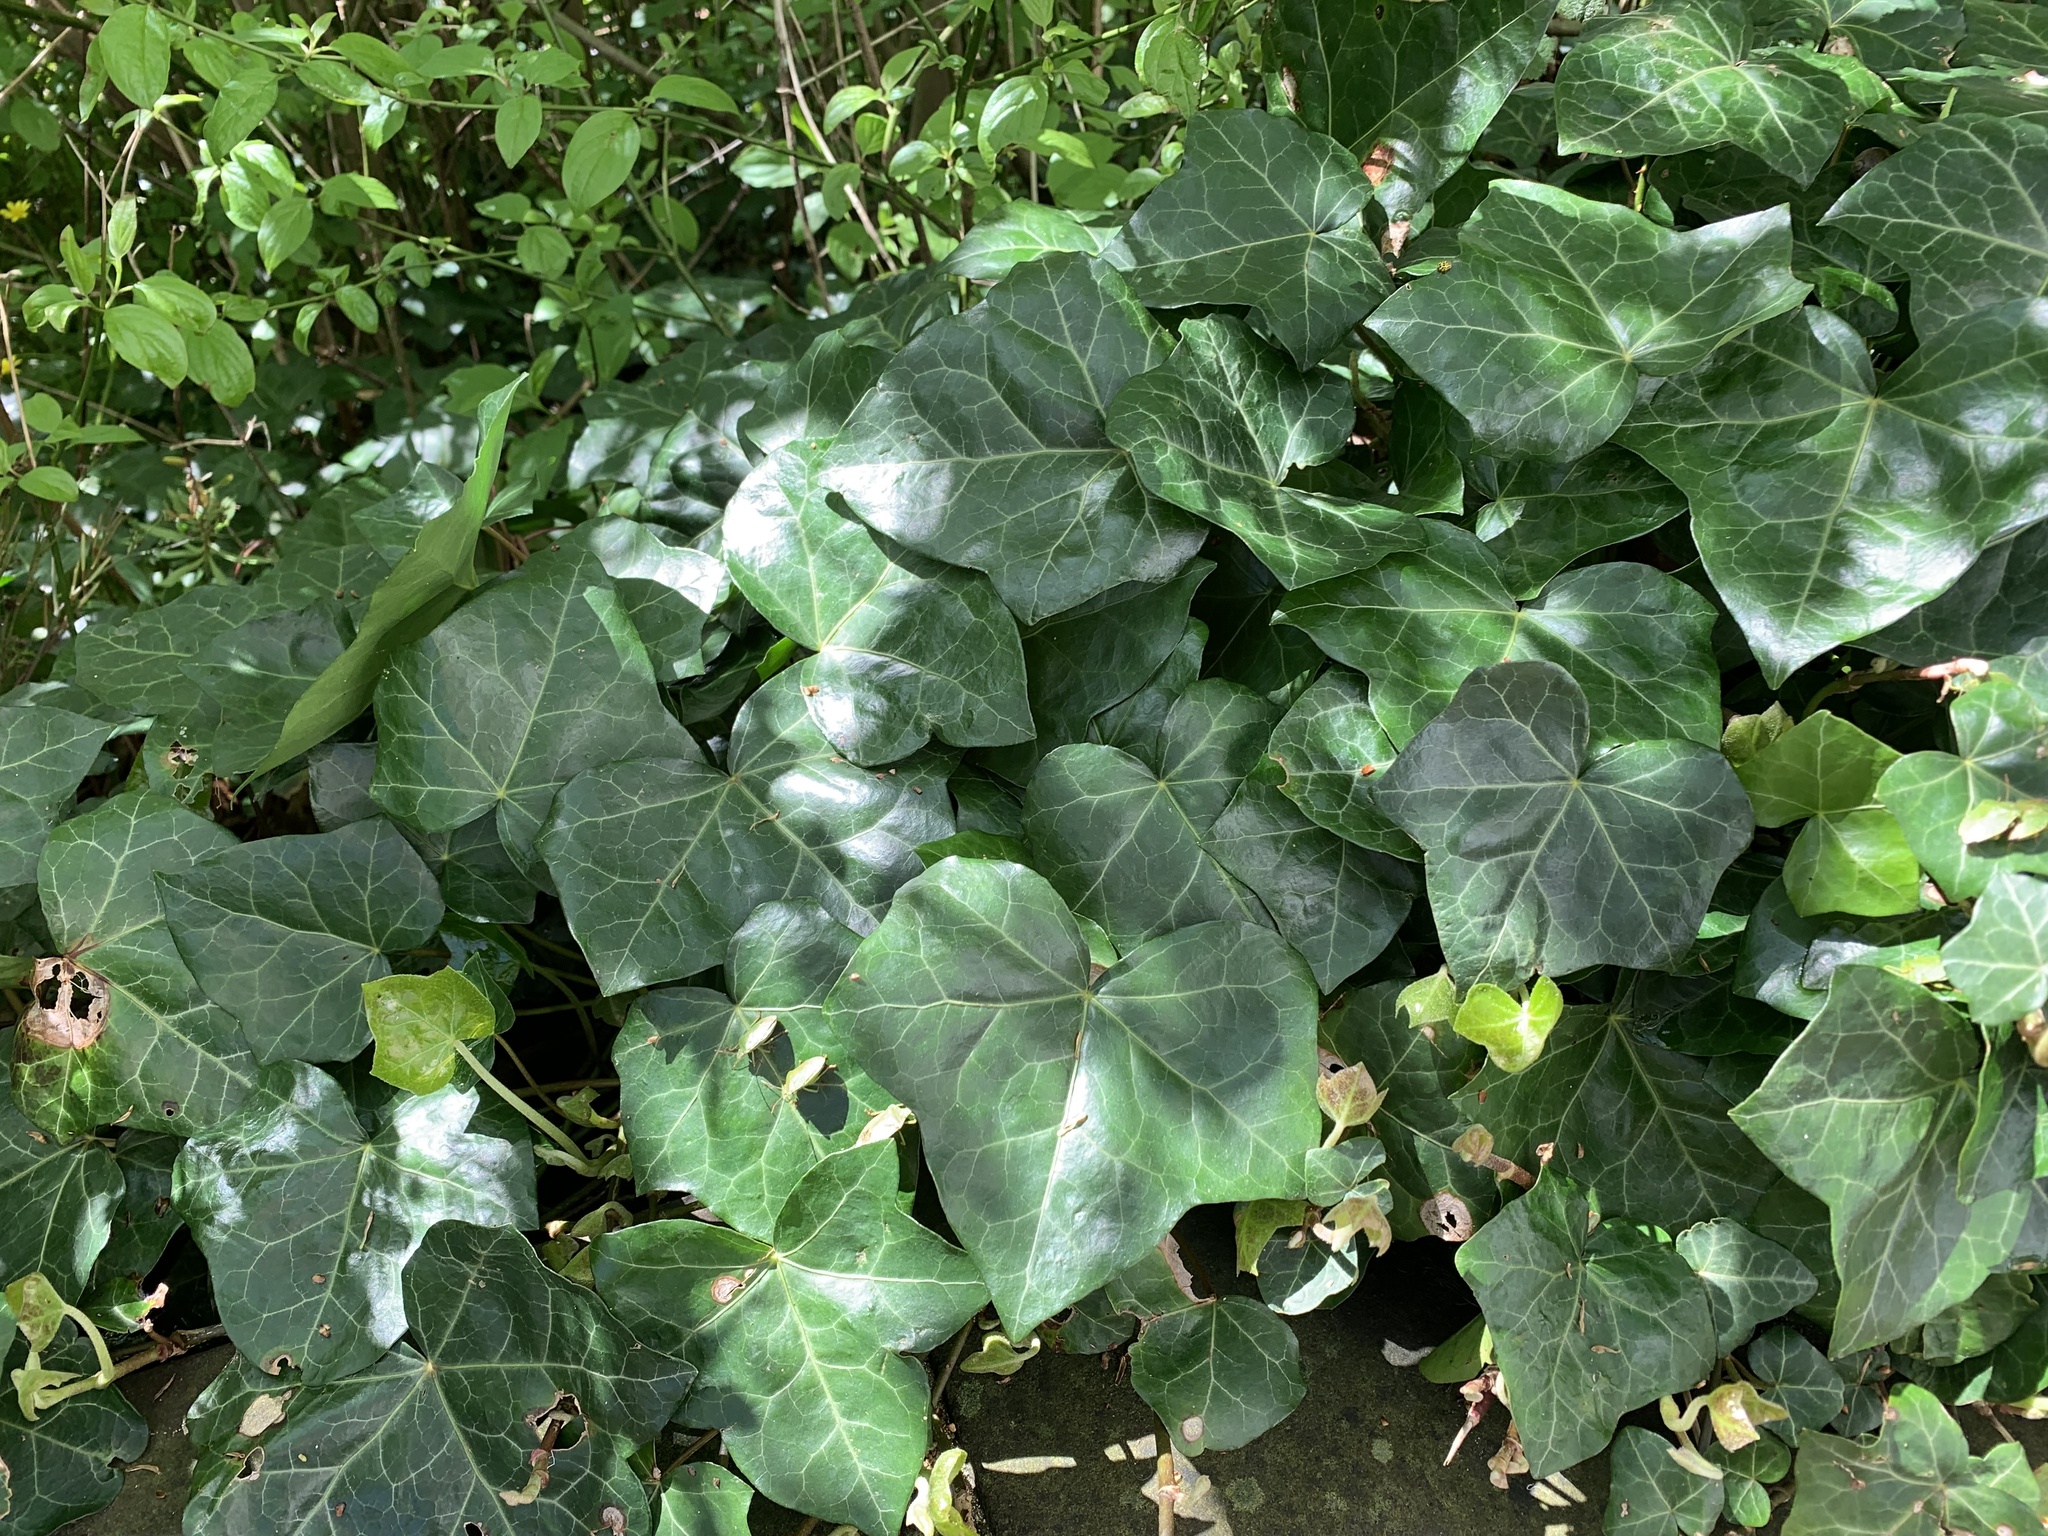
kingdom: Plantae
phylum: Tracheophyta
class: Magnoliopsida
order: Apiales
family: Araliaceae
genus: Hedera
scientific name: Hedera helix
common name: Ivy
